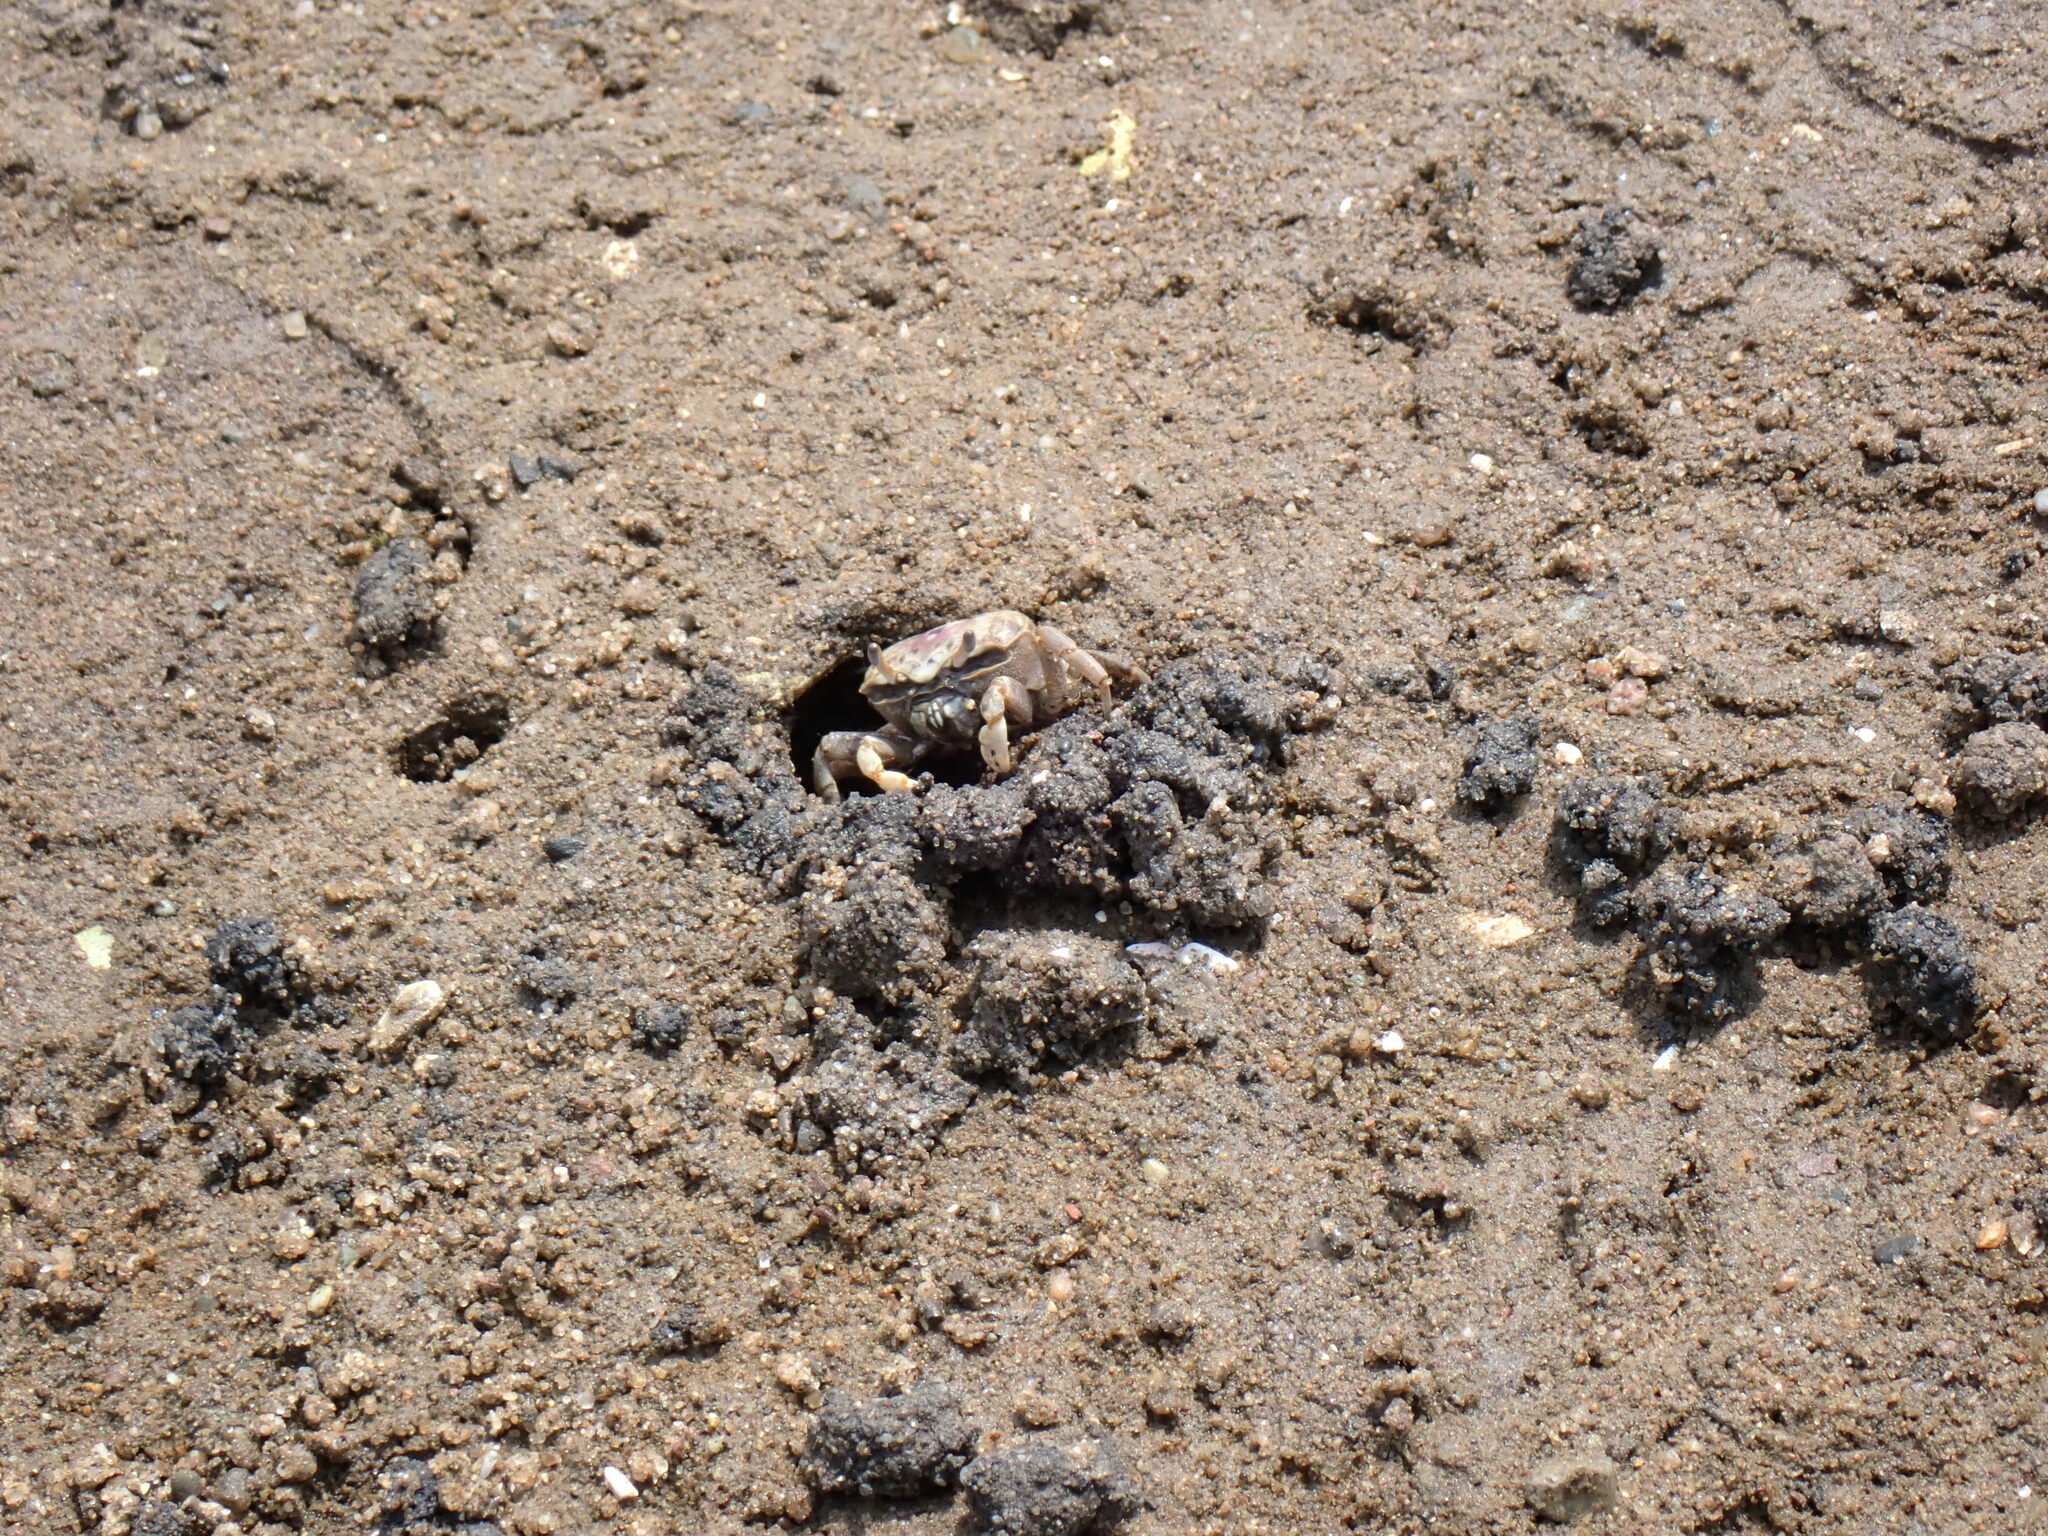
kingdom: Animalia
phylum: Arthropoda
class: Malacostraca
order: Decapoda
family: Ocypodidae
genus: Leptuca
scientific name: Leptuca pugilator
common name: Atlantic sand fiddler crab
